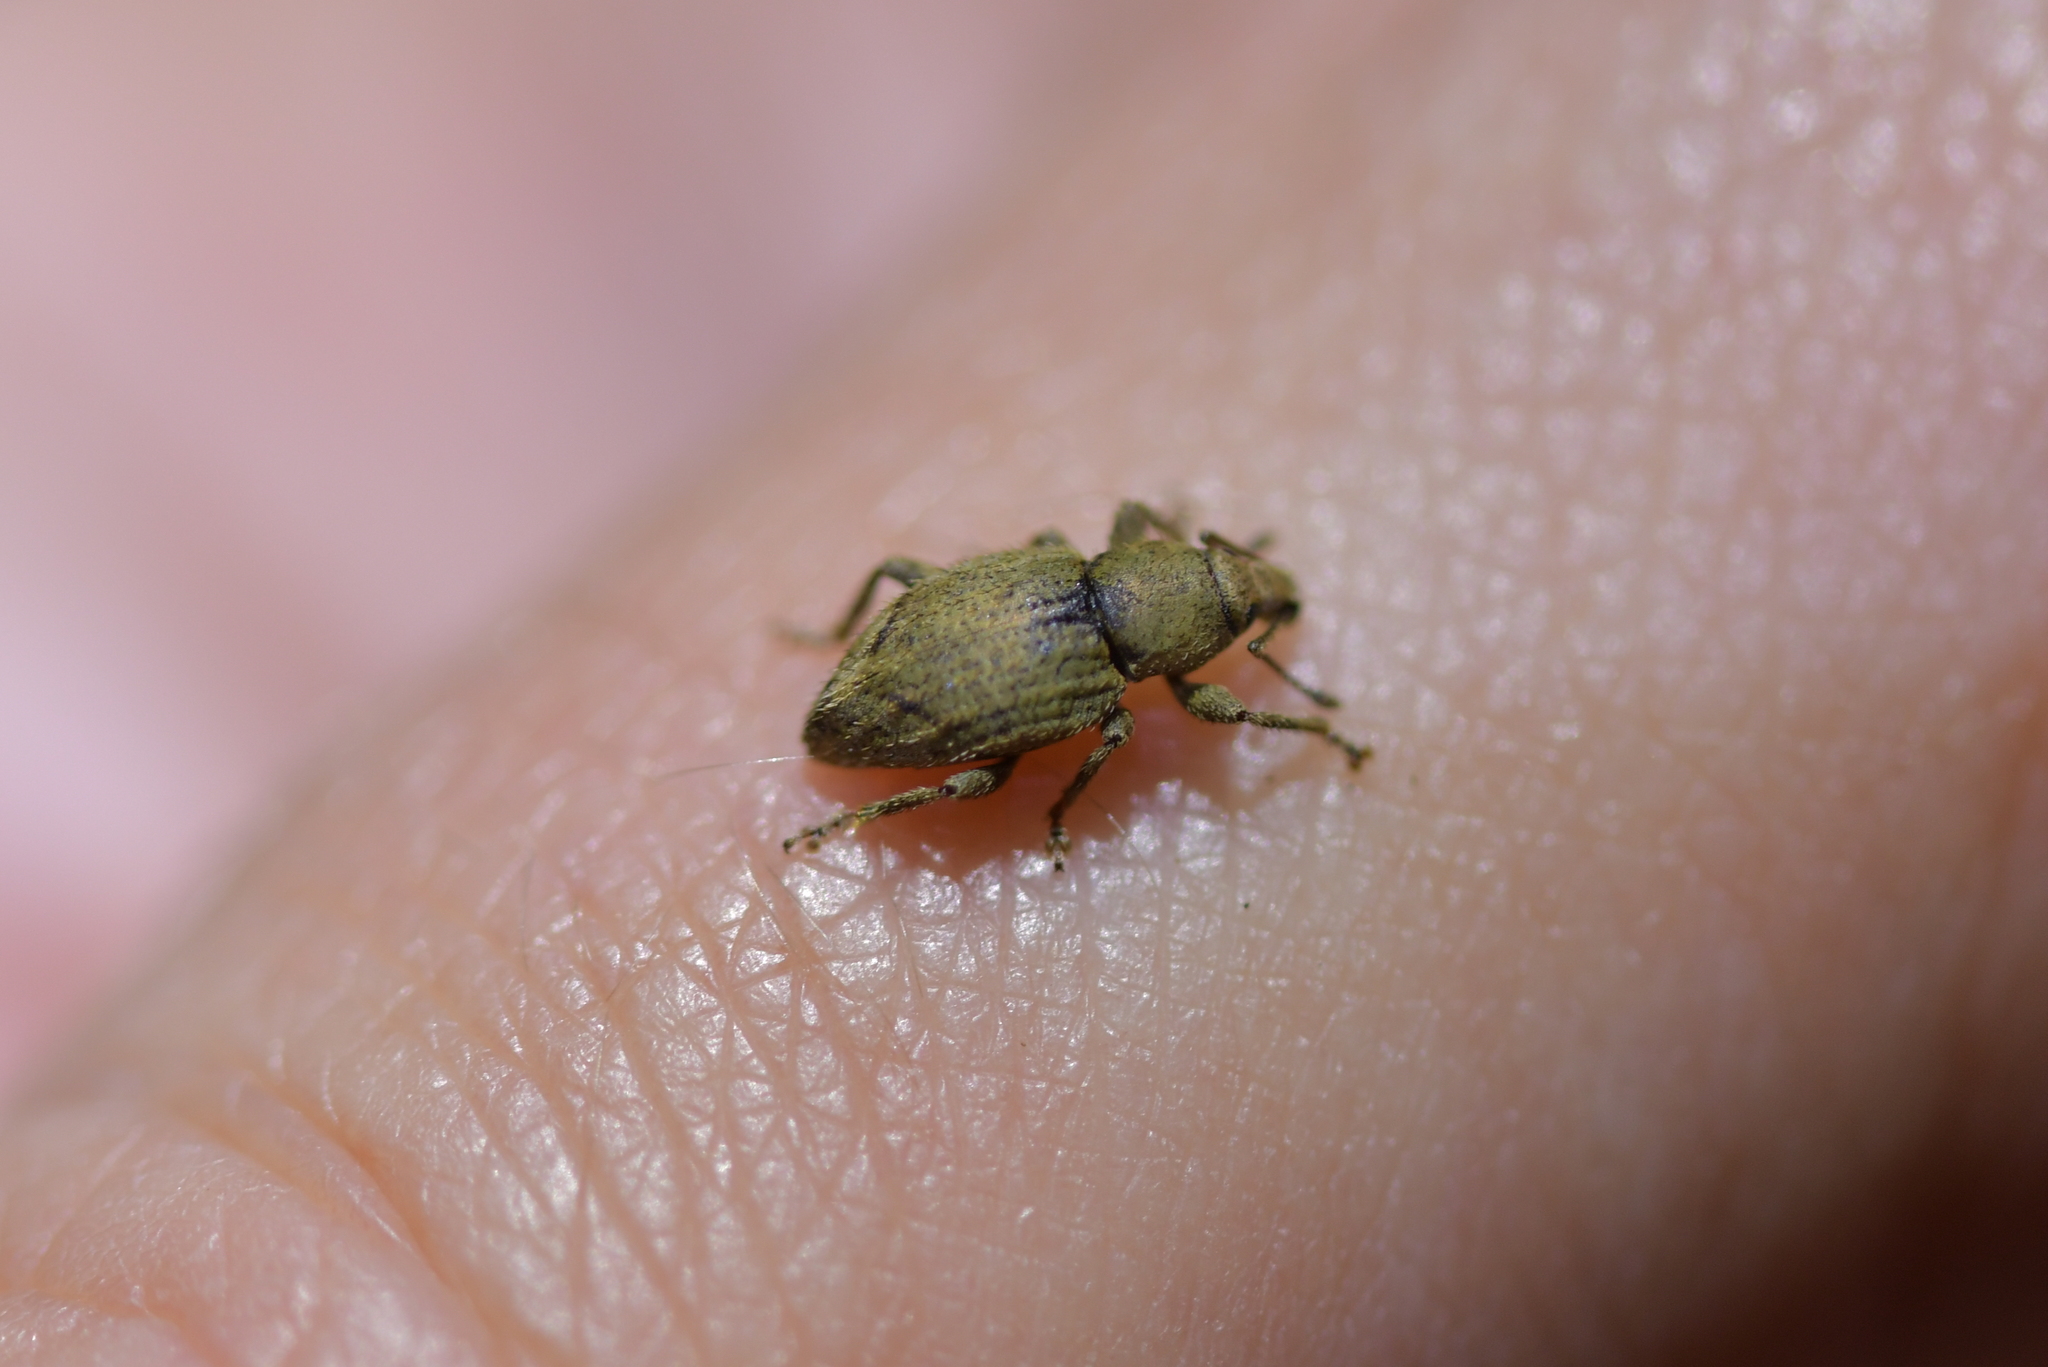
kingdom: Animalia
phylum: Arthropoda
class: Insecta
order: Coleoptera
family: Curculionidae
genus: Chalepistes
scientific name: Chalepistes compressus
